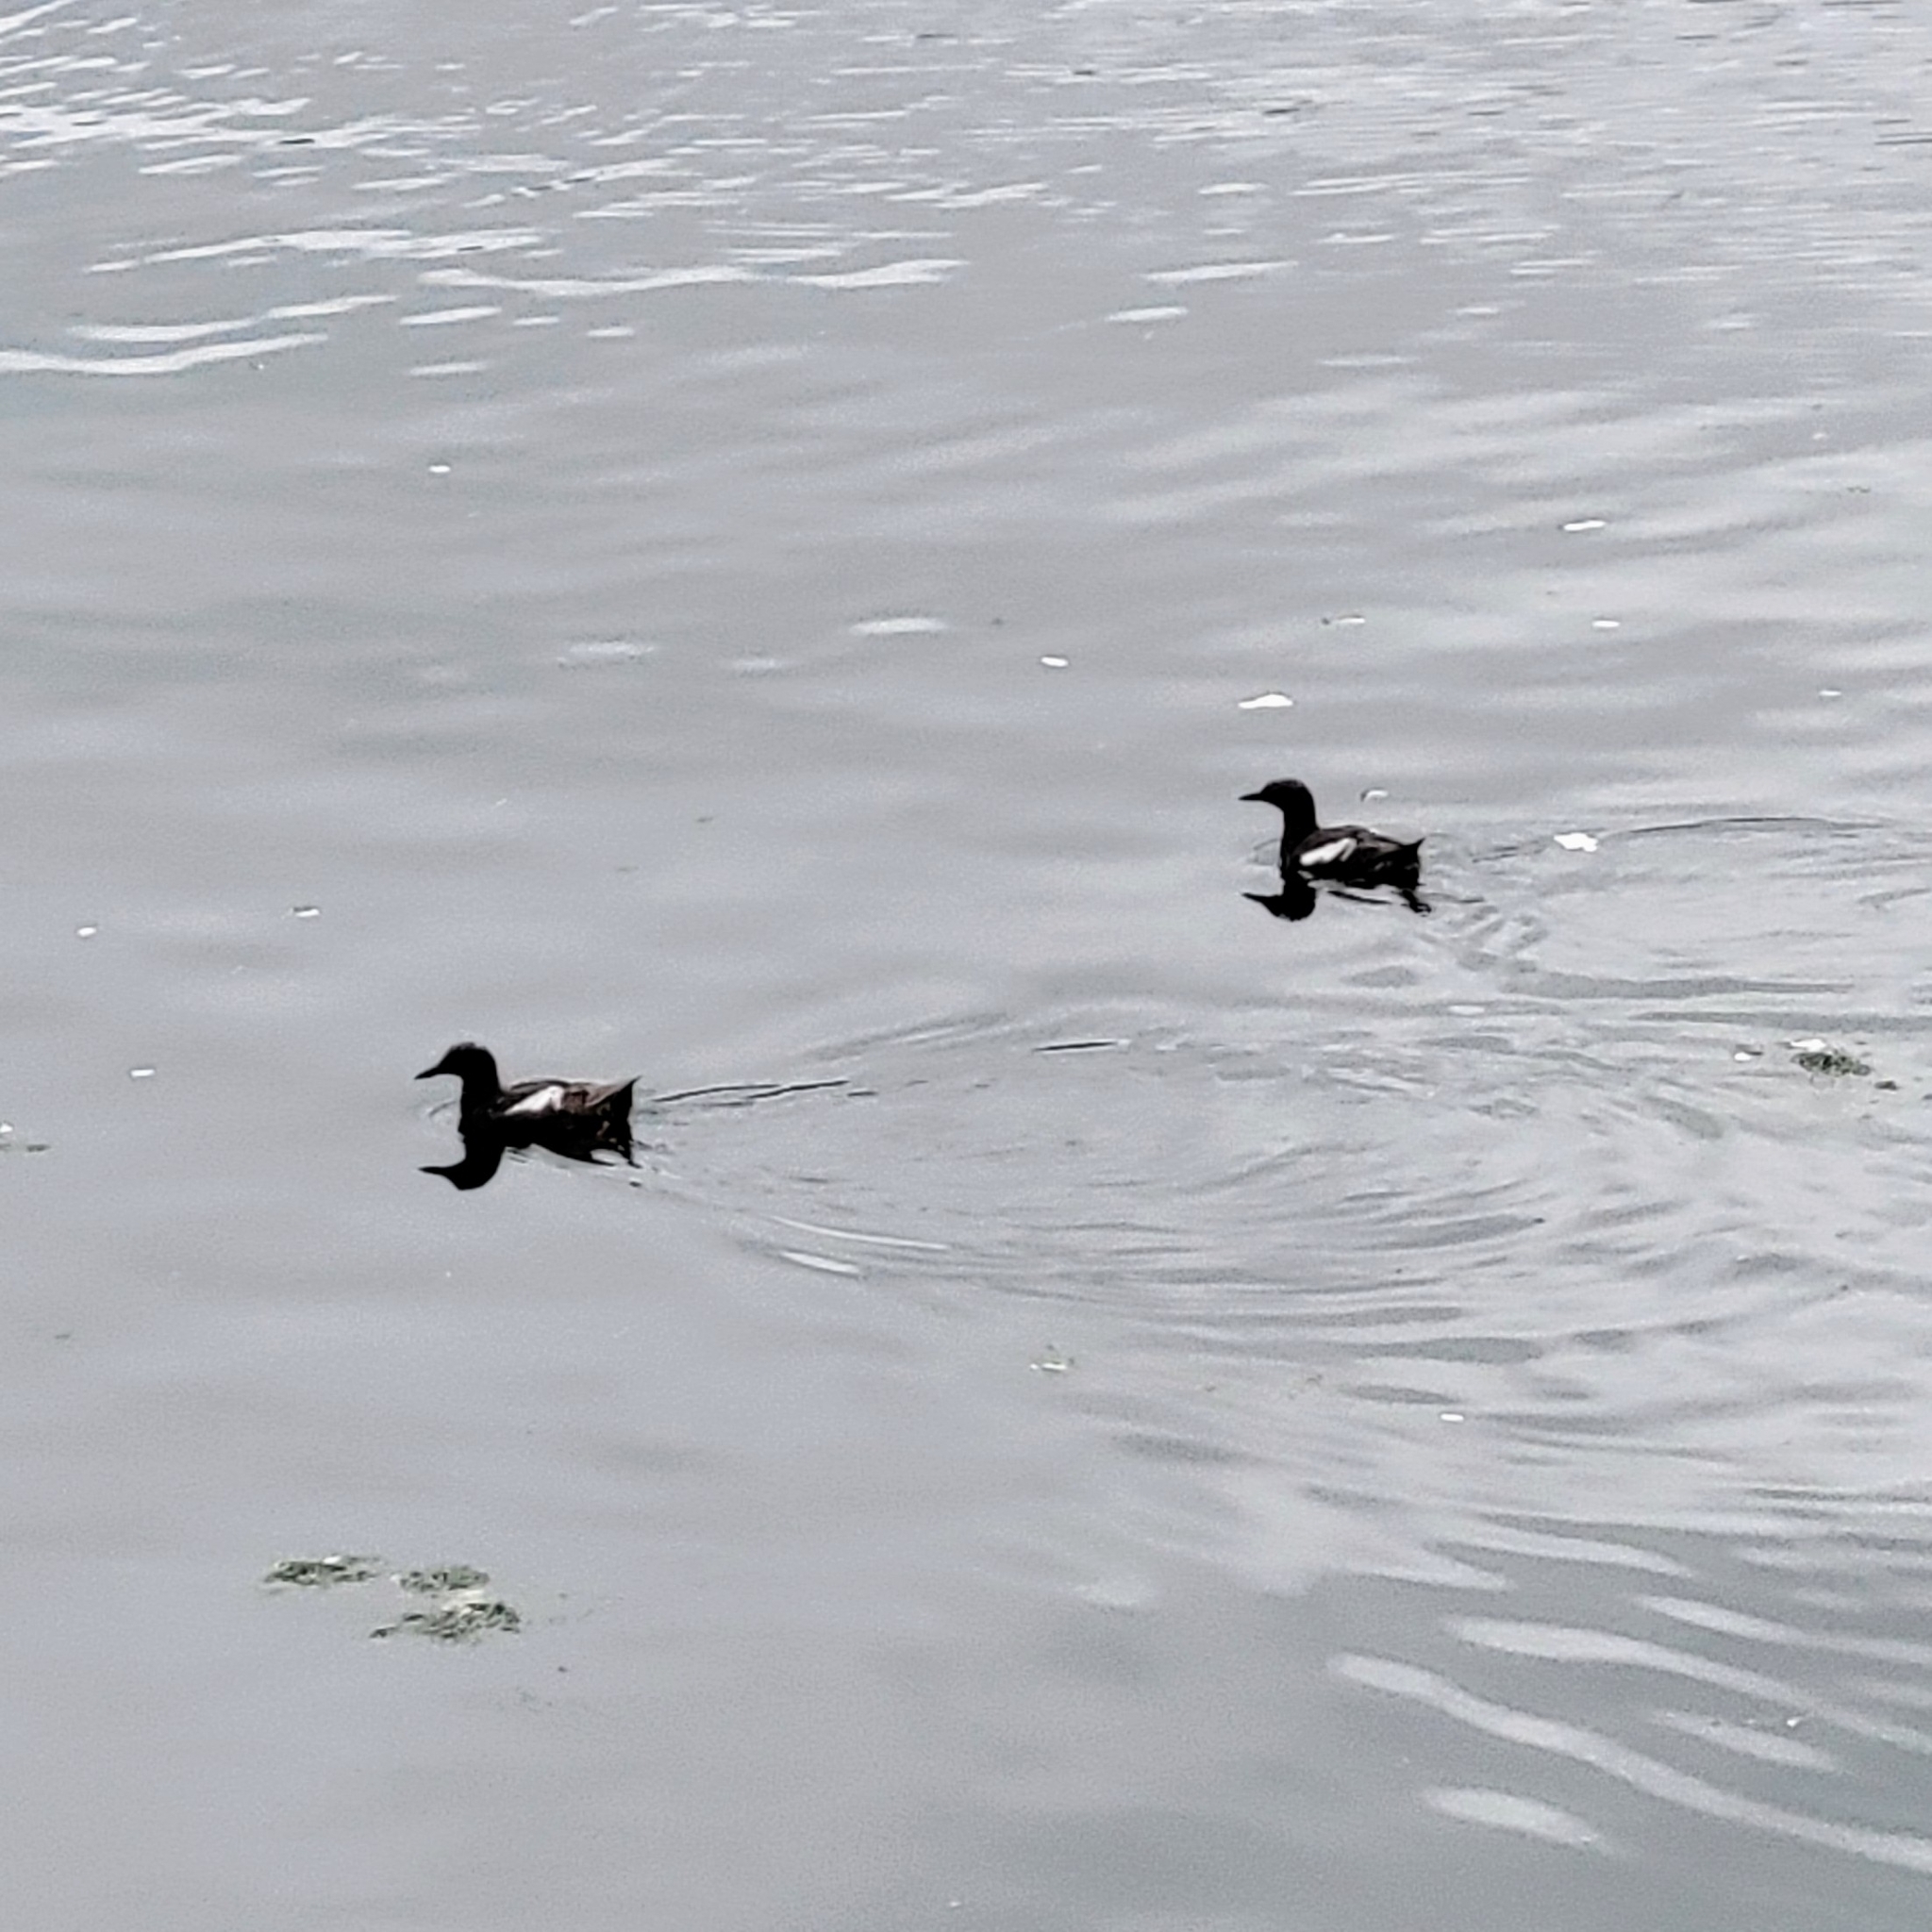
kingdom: Animalia
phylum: Chordata
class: Aves
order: Charadriiformes
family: Alcidae
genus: Cepphus
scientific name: Cepphus columba
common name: Pigeon guillemot
